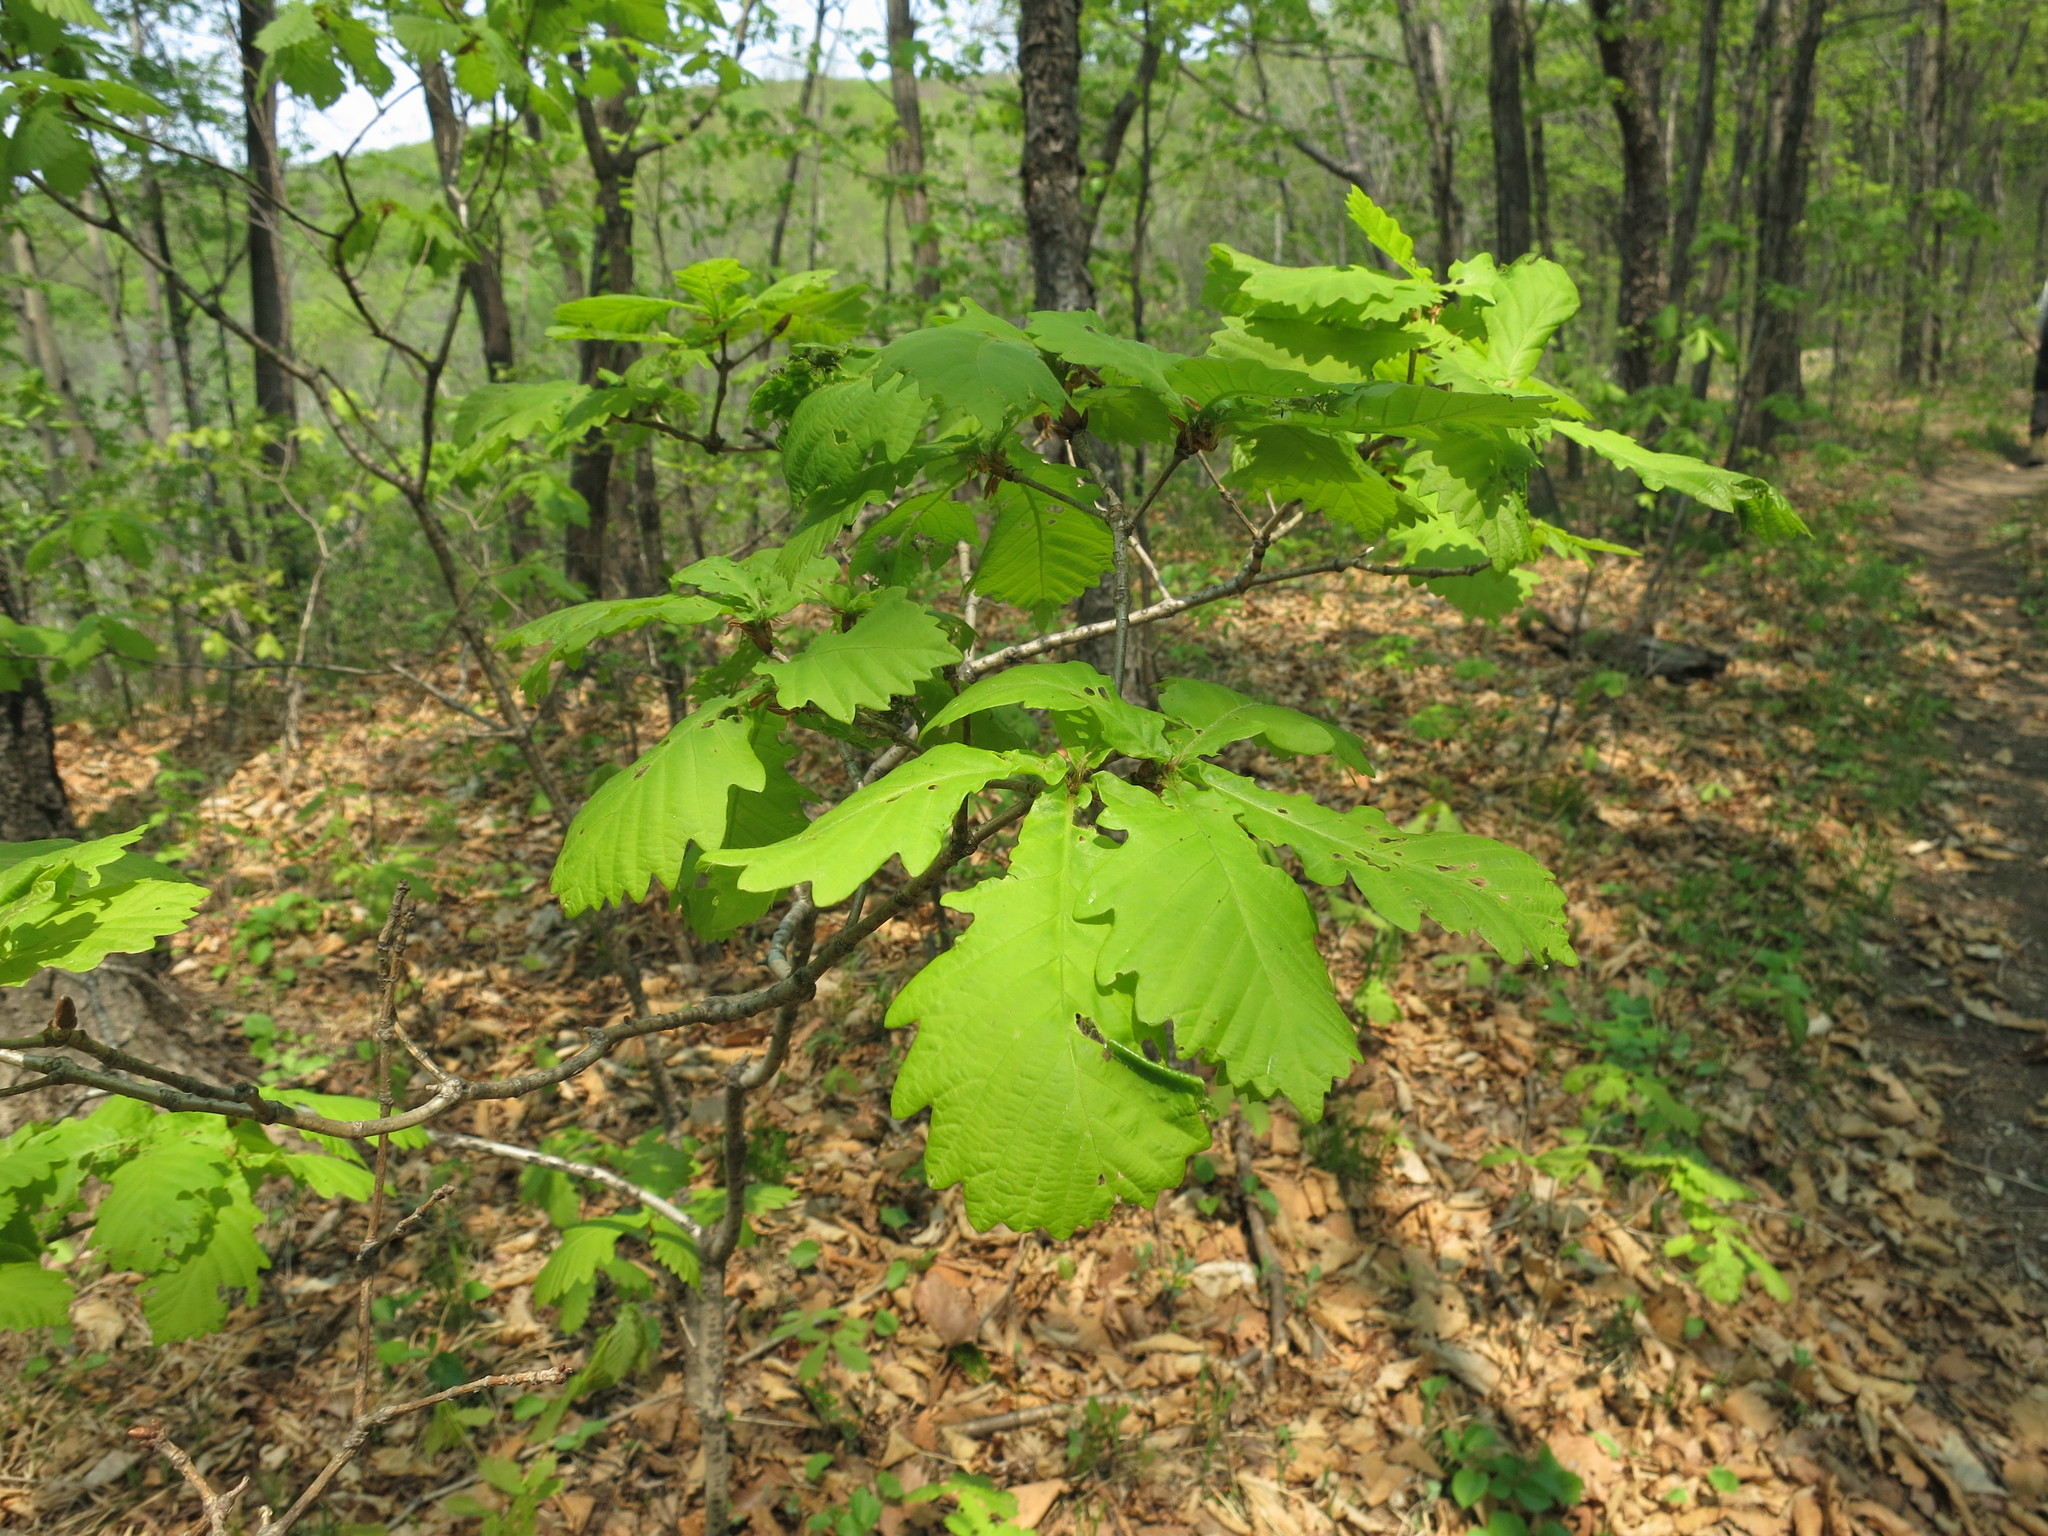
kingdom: Plantae
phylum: Tracheophyta
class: Magnoliopsida
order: Fagales
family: Fagaceae
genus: Quercus
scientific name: Quercus mongolica
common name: Mongolian oak
